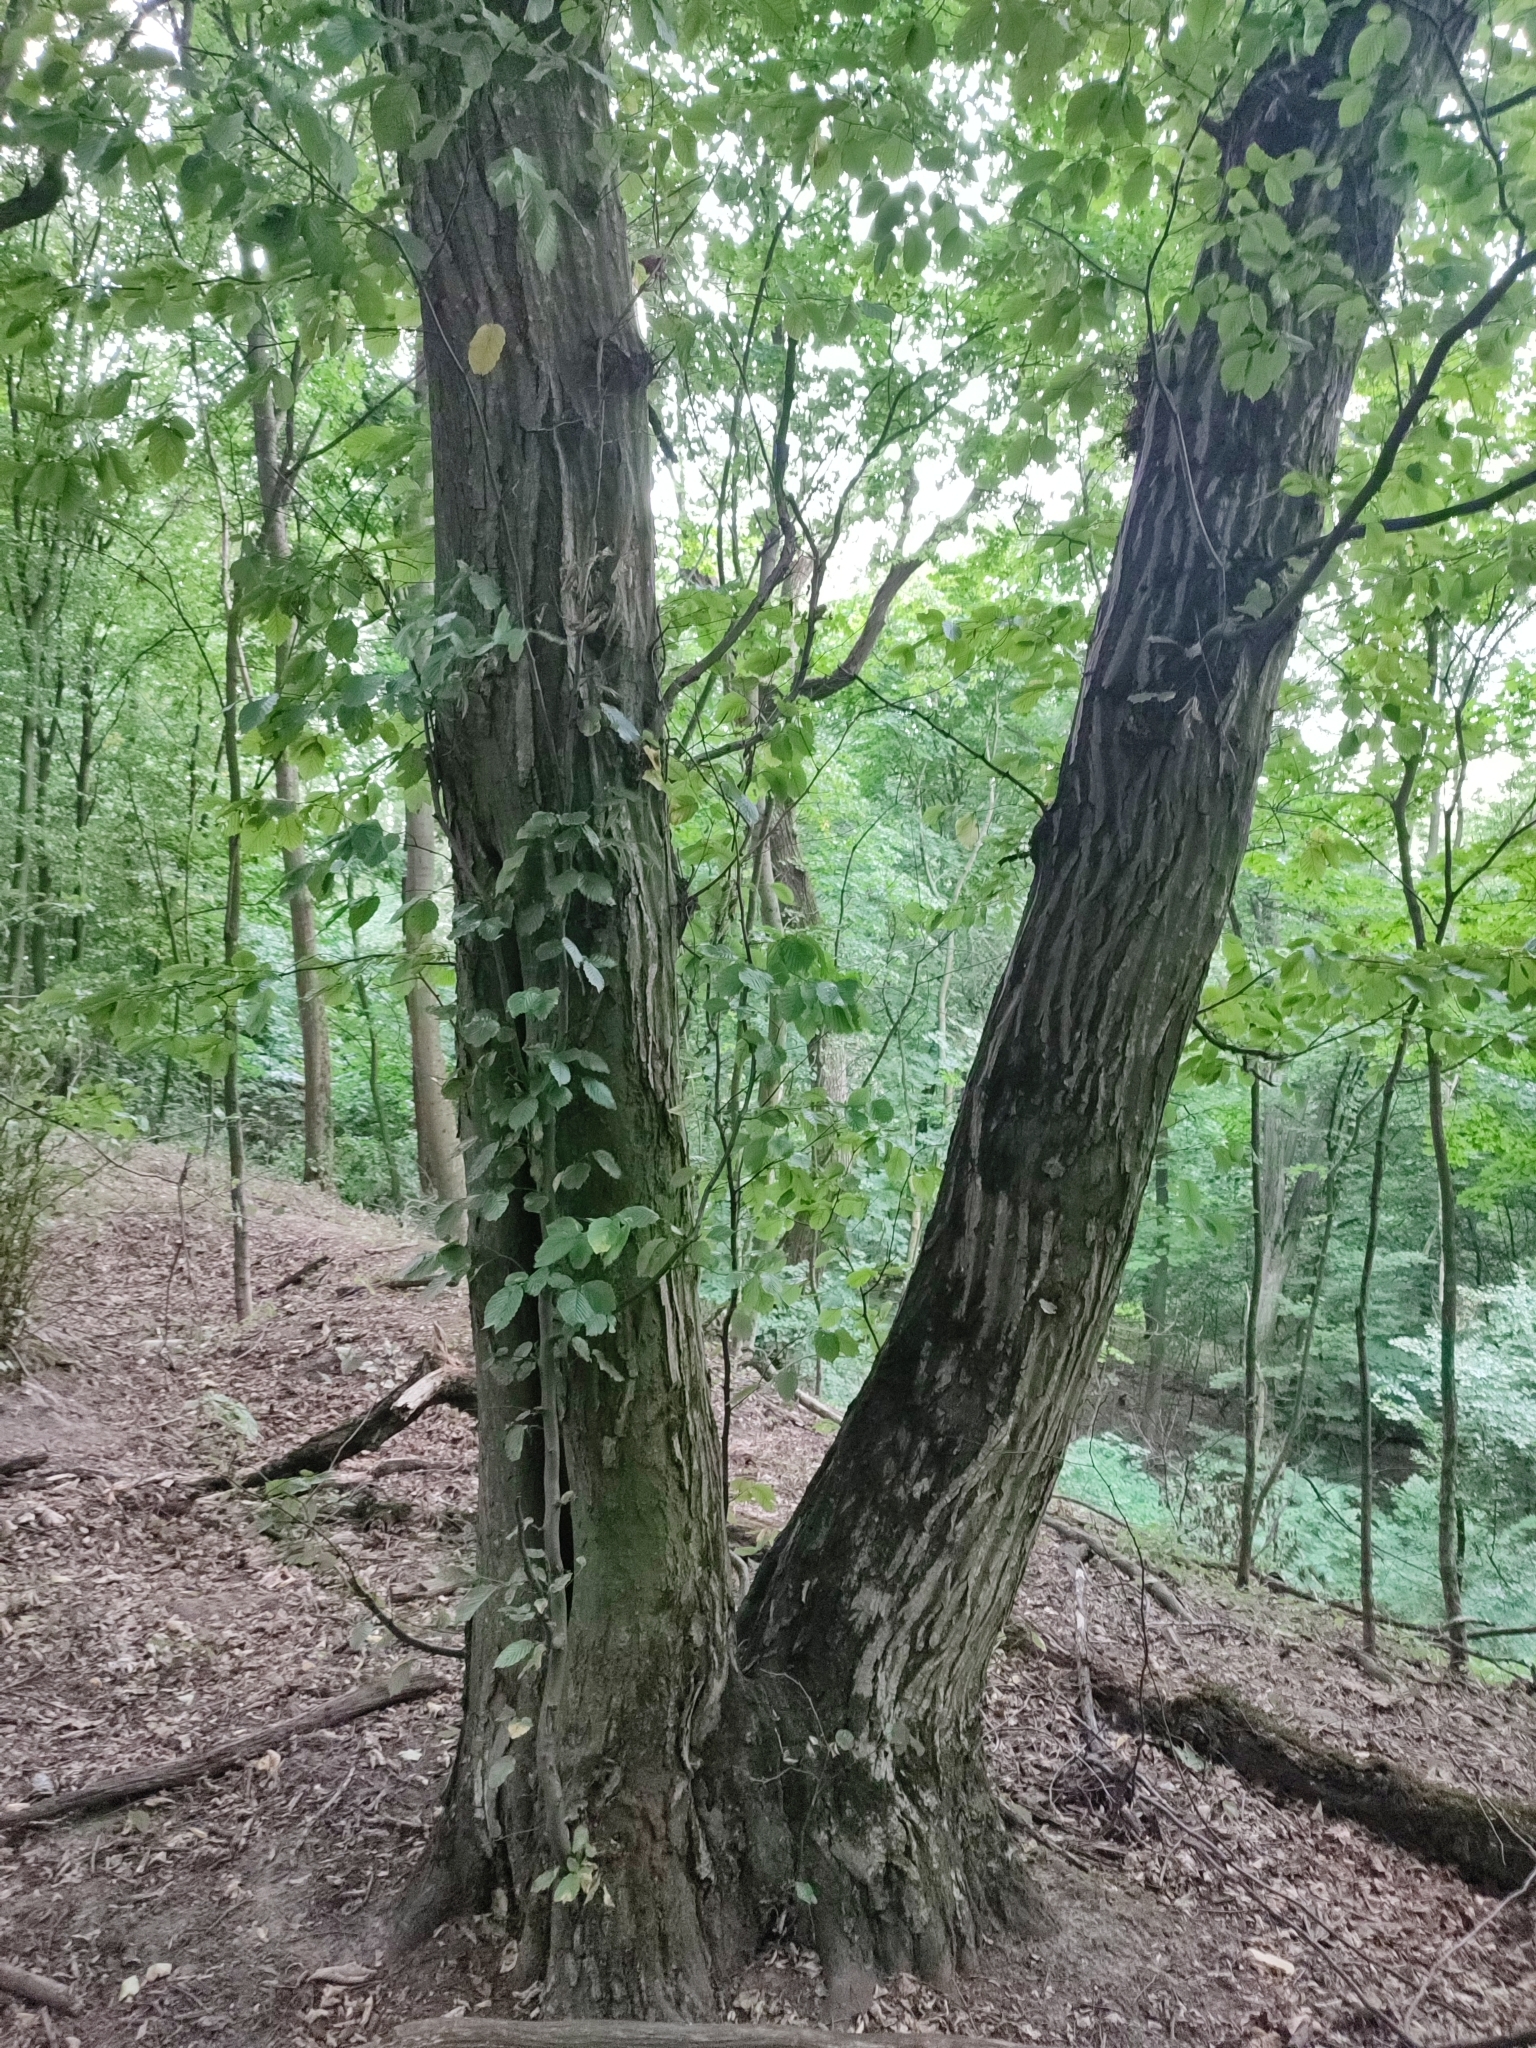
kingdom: Plantae
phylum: Tracheophyta
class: Magnoliopsida
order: Fagales
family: Betulaceae
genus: Carpinus
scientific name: Carpinus betulus
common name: Hornbeam
